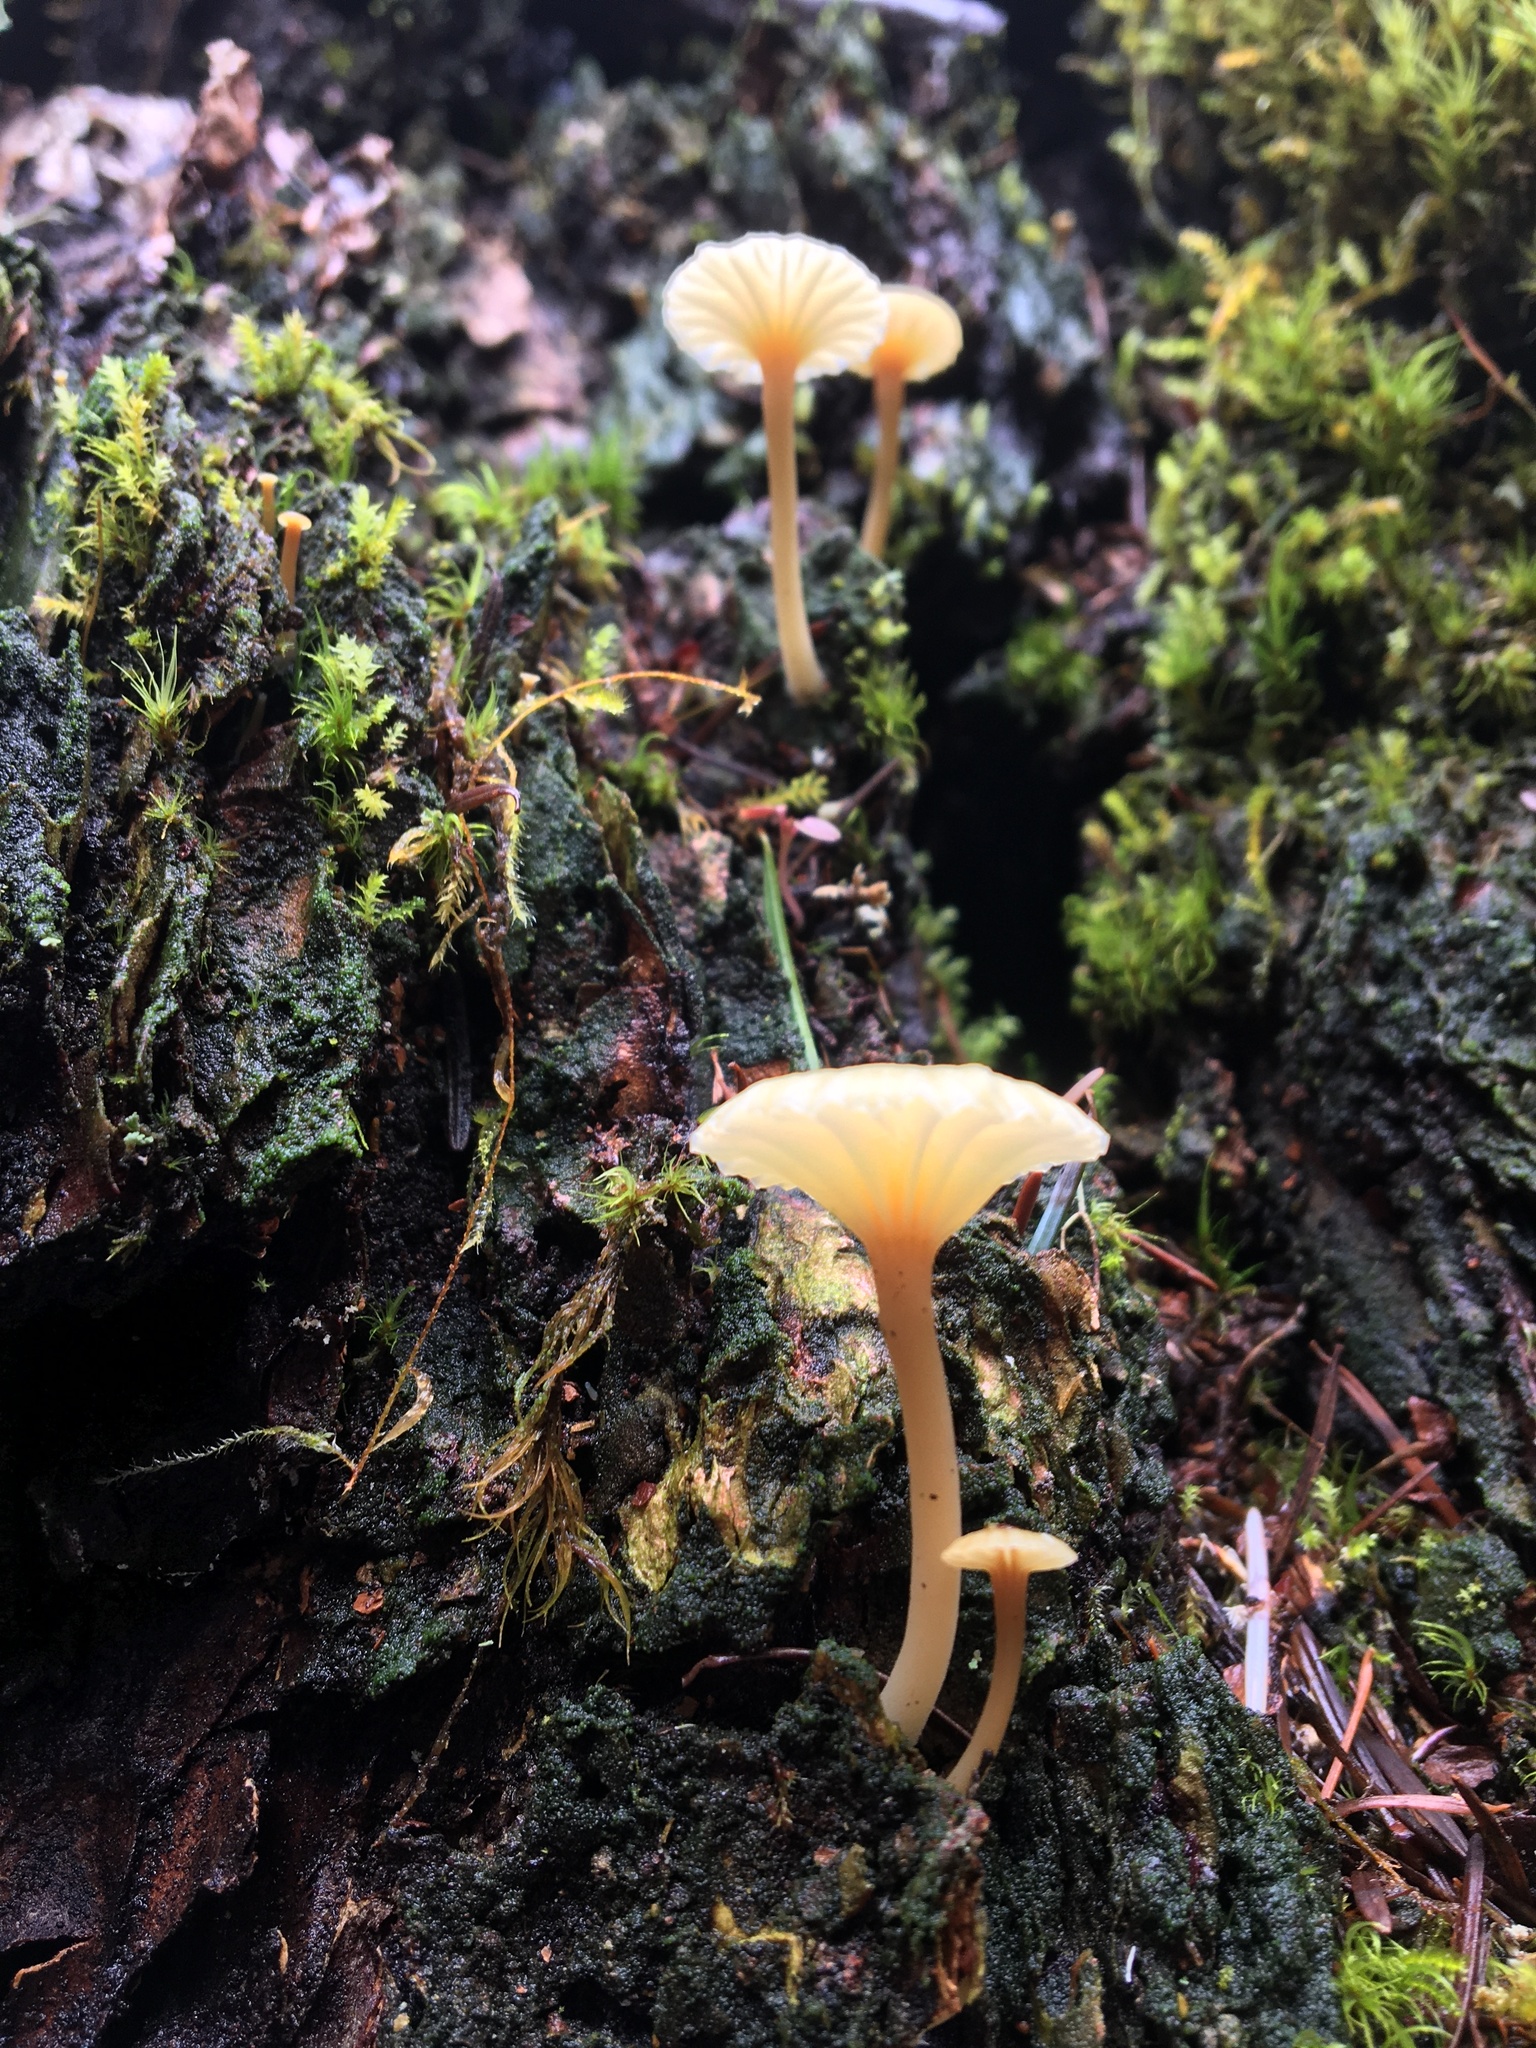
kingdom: Fungi
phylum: Basidiomycota
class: Agaricomycetes
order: Agaricales
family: Hygrophoraceae
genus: Lichenomphalia
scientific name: Lichenomphalia
